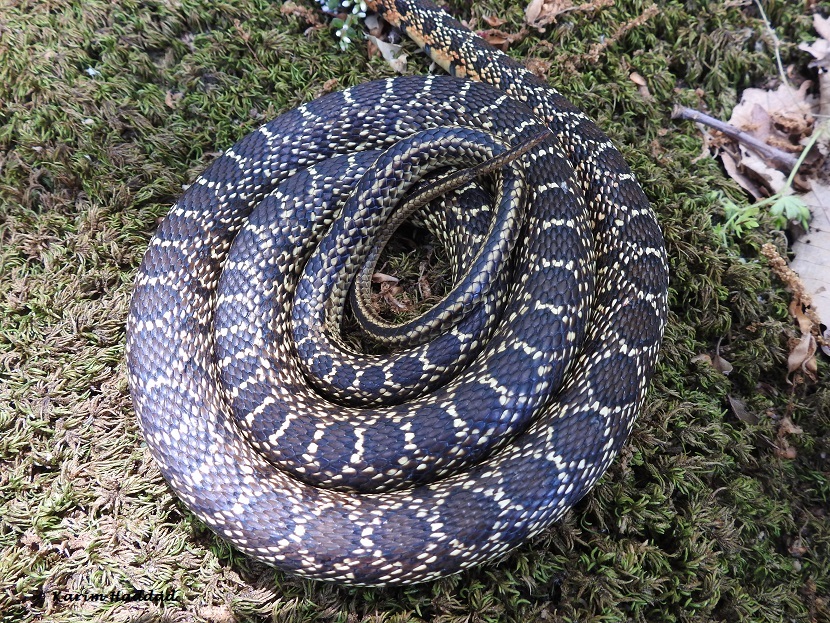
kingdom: Animalia
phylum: Chordata
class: Squamata
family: Colubridae
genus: Hemorrhois
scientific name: Hemorrhois hippocrepis
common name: Horseshoe whip snake
